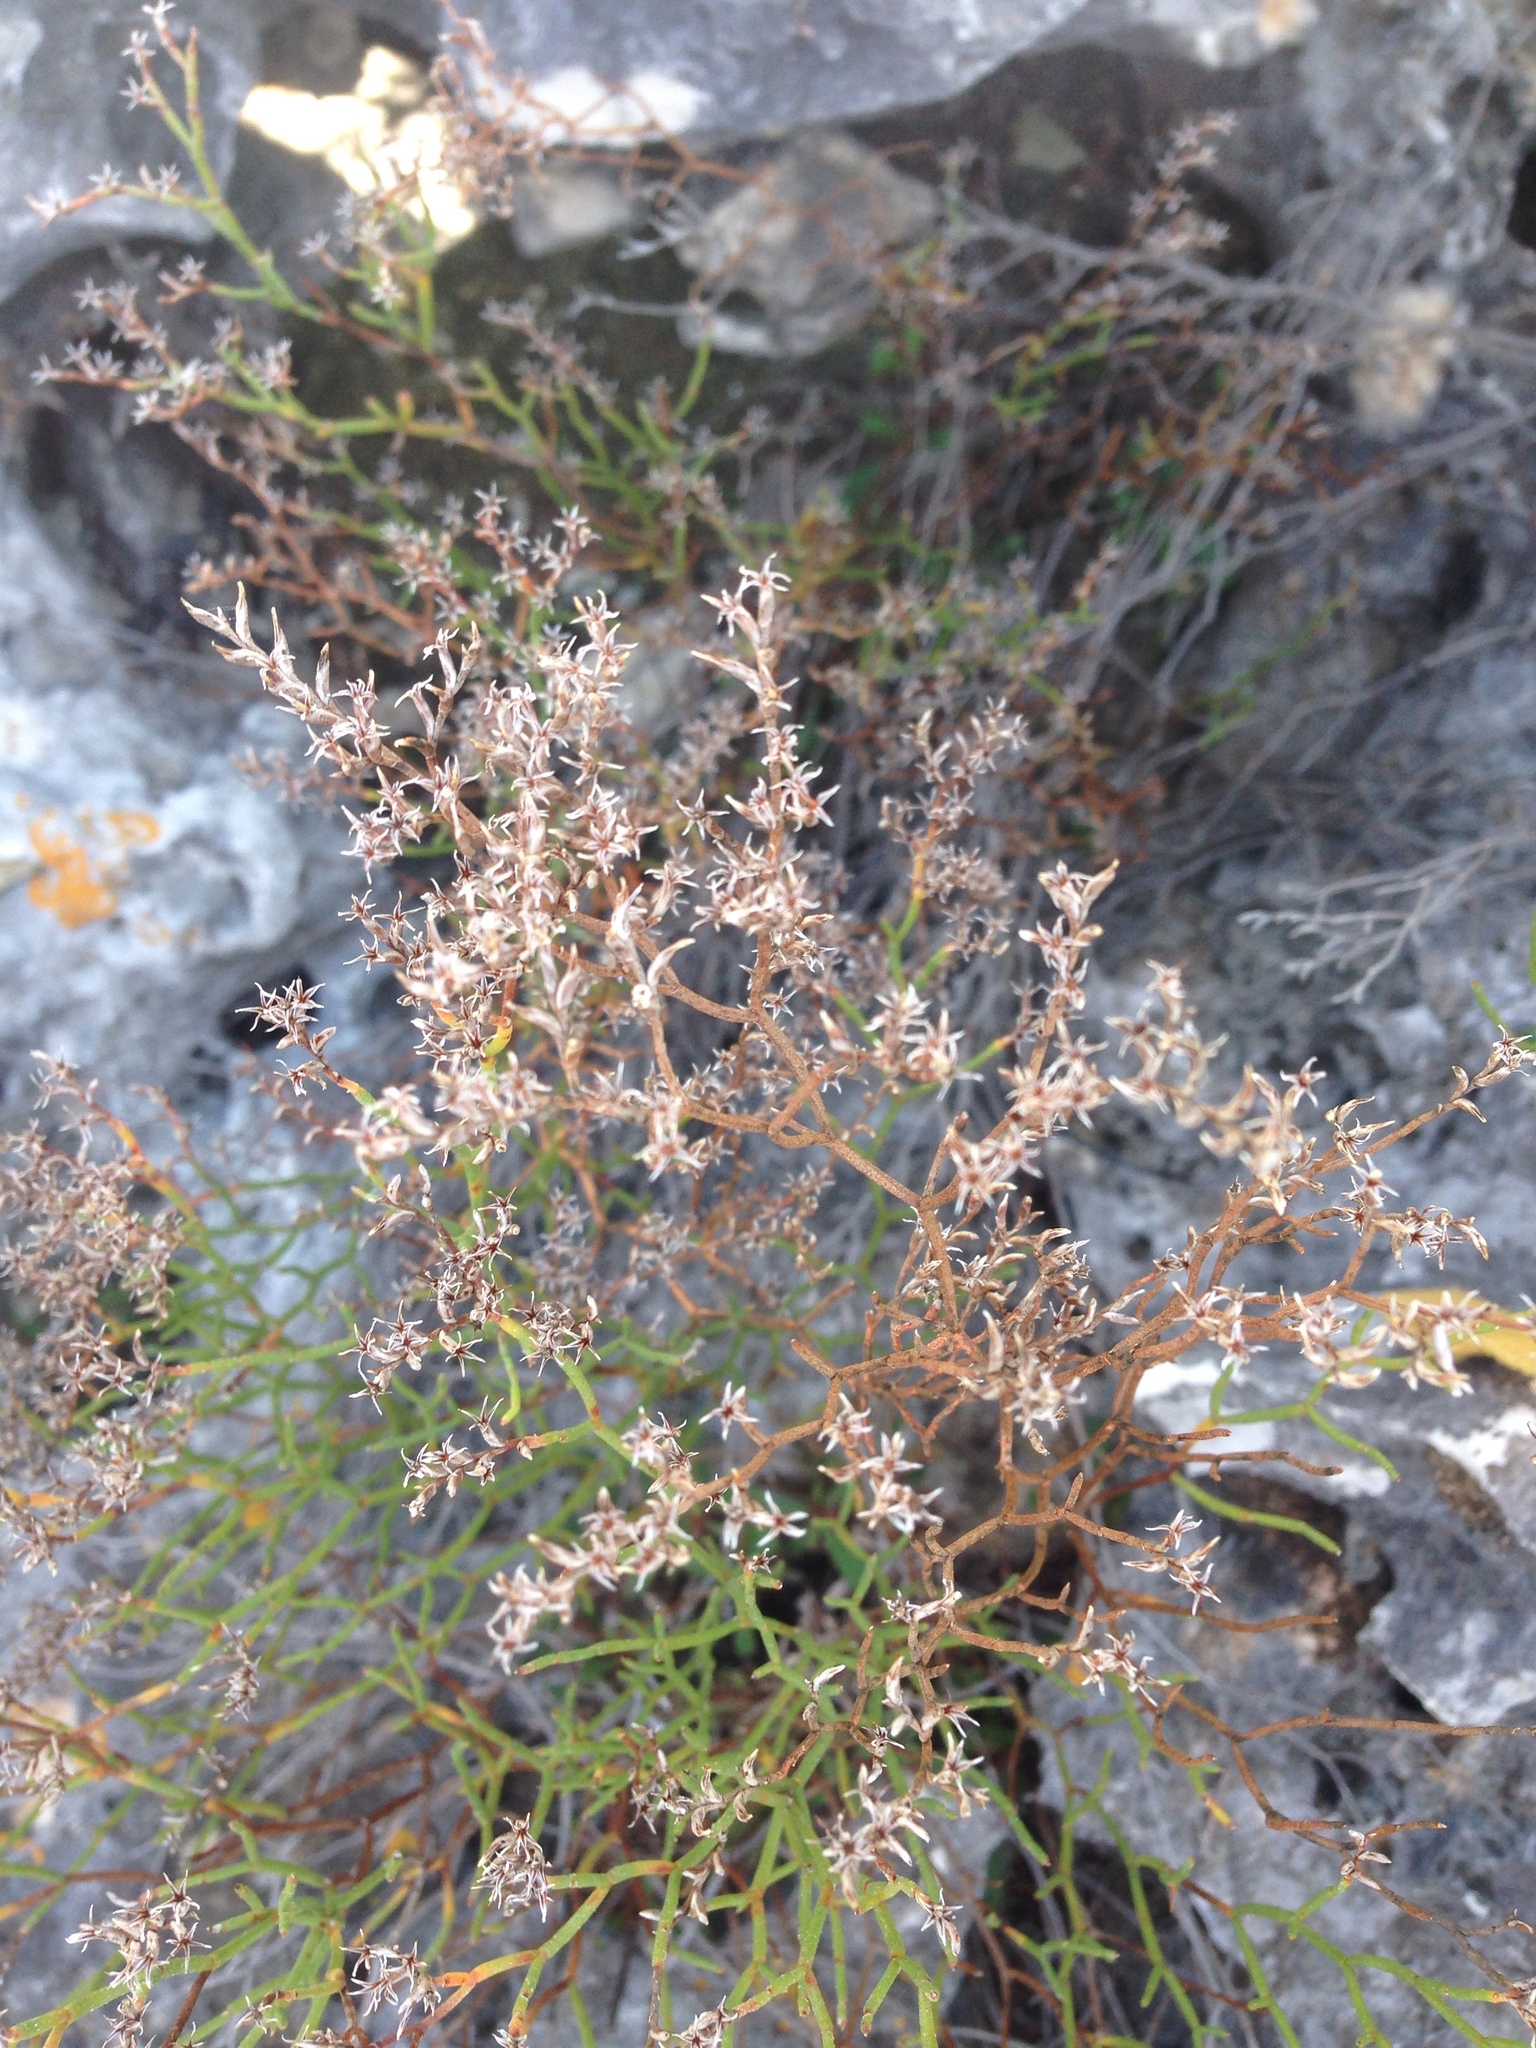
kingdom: Plantae
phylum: Tracheophyta
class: Magnoliopsida
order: Caryophyllales
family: Plumbaginaceae
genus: Limonium
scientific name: Limonium japygicum
